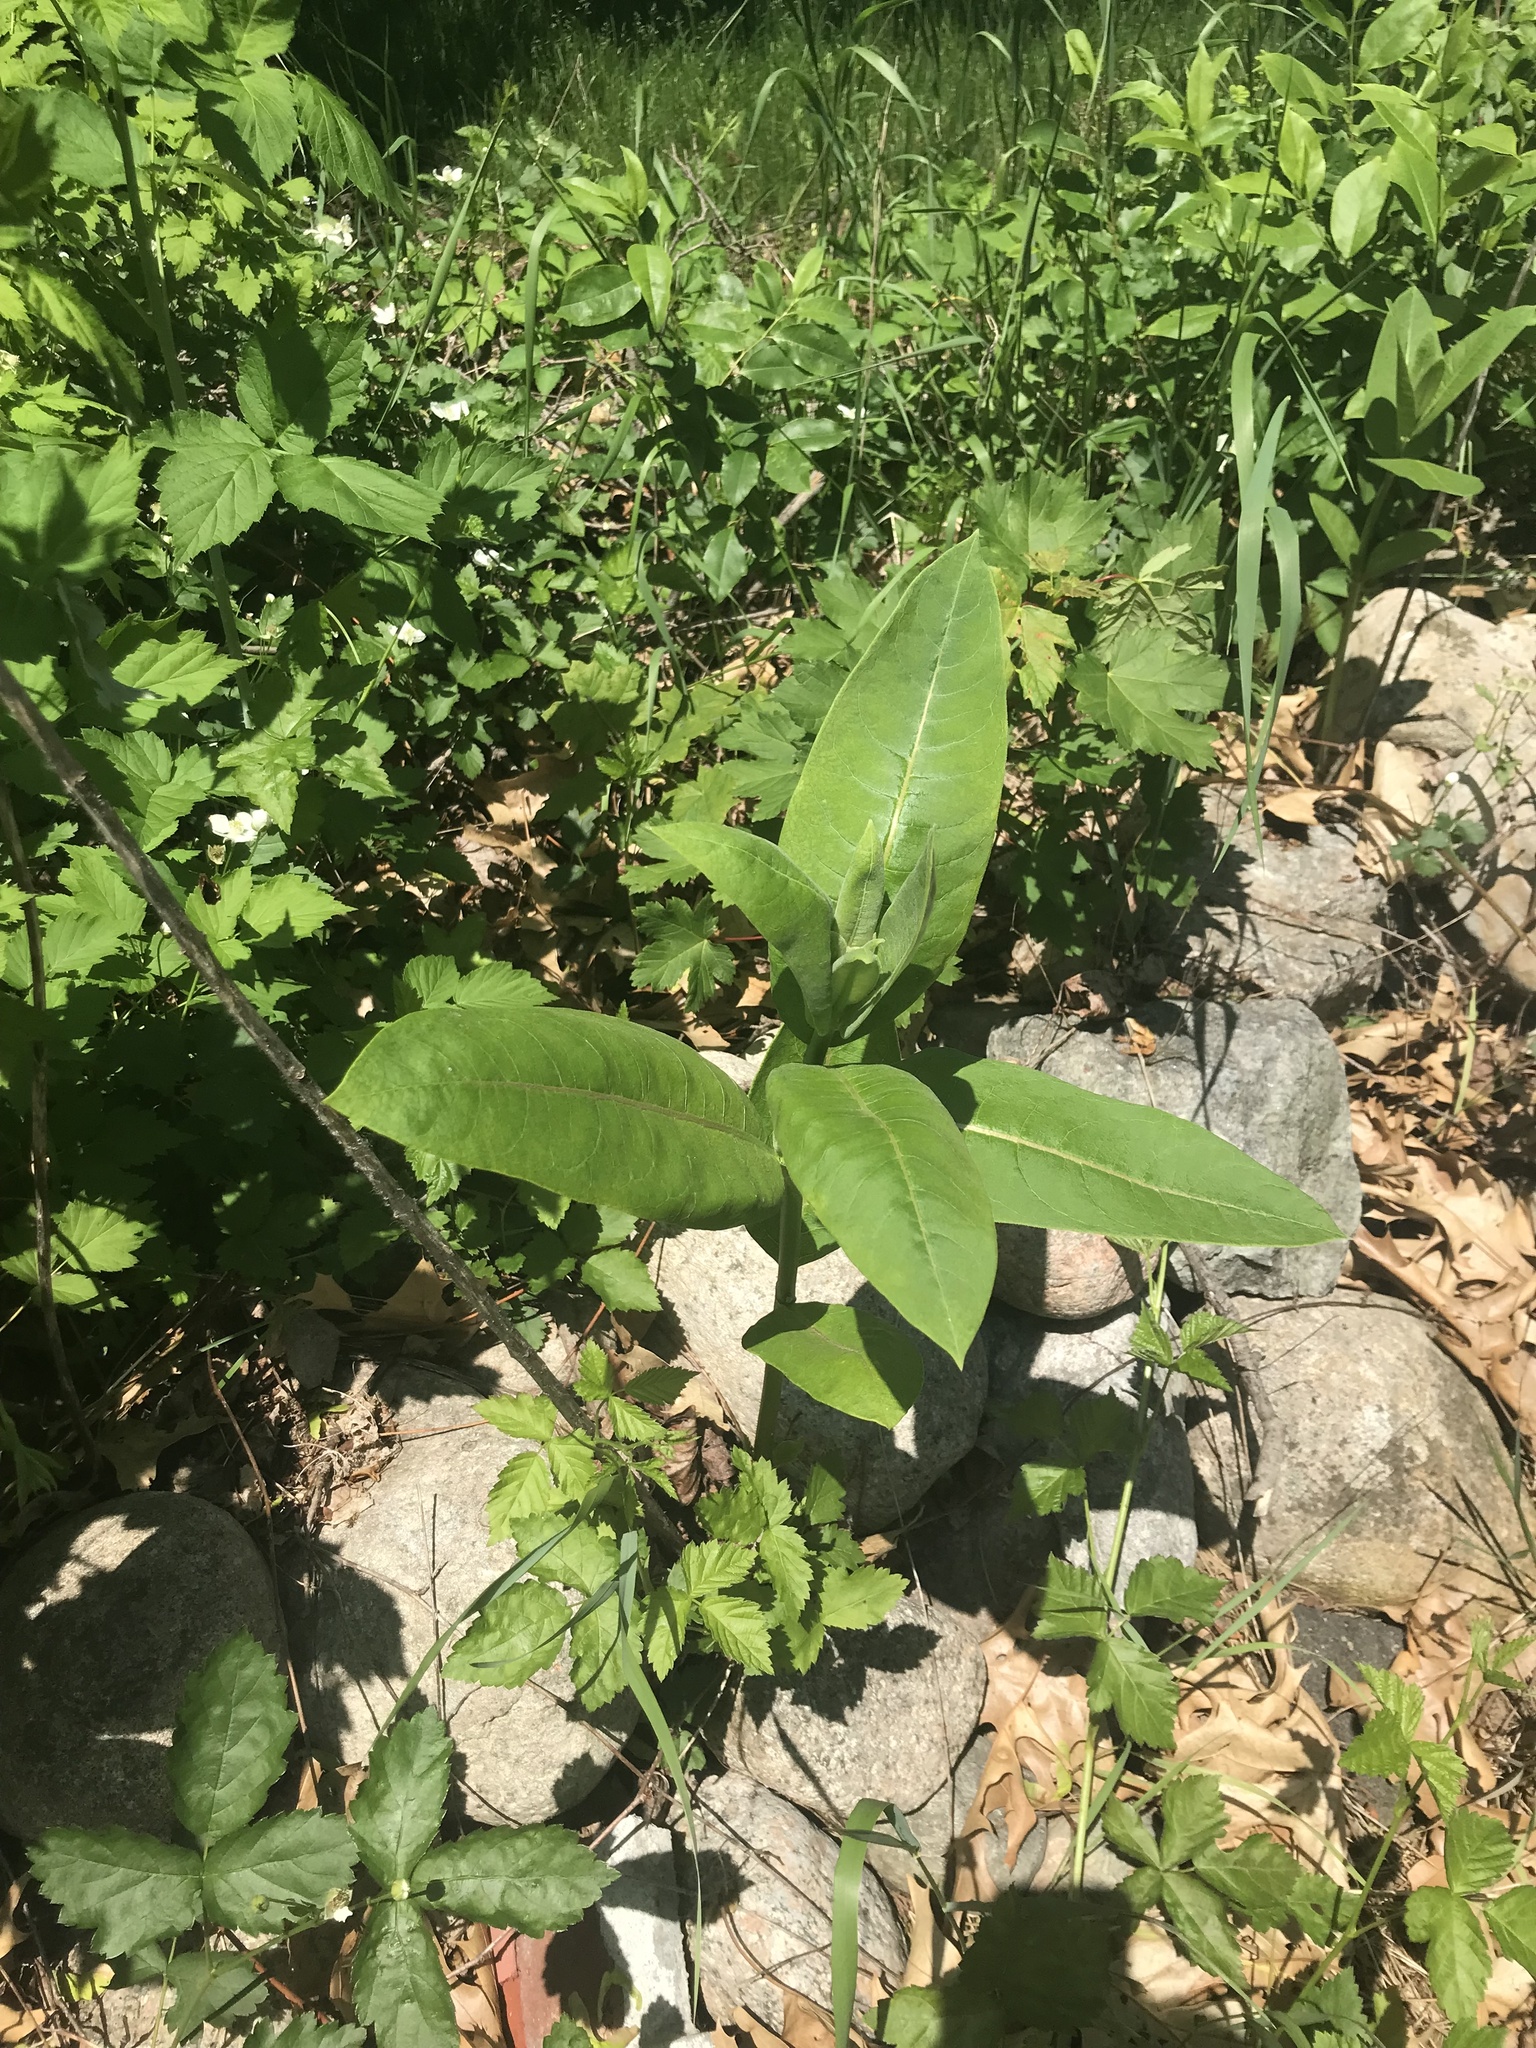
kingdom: Plantae
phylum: Tracheophyta
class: Magnoliopsida
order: Gentianales
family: Apocynaceae
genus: Asclepias
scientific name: Asclepias syriaca
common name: Common milkweed
